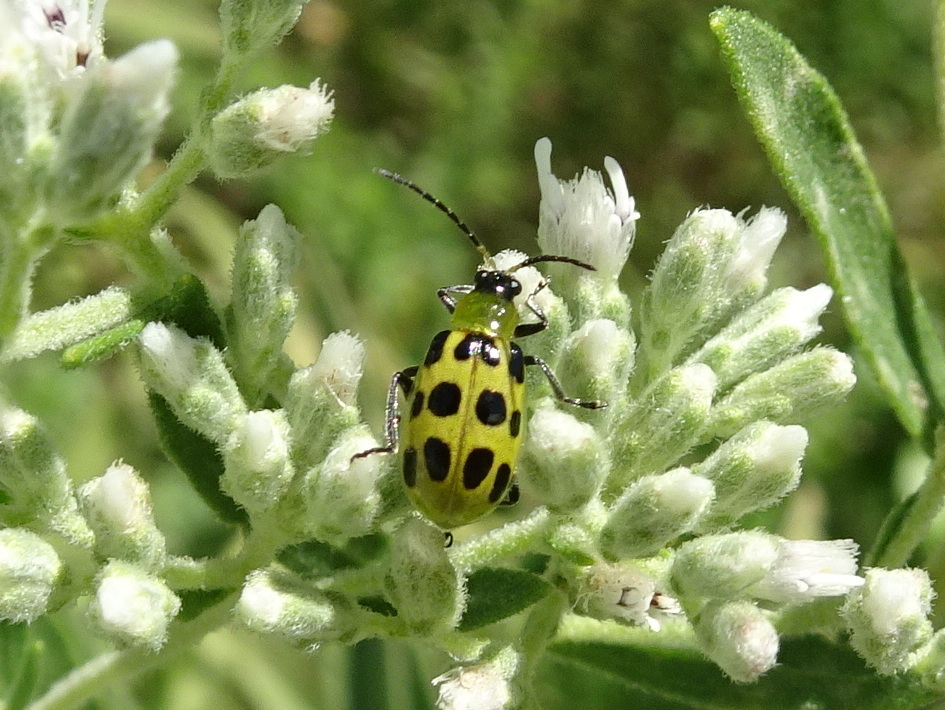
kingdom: Animalia
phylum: Arthropoda
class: Insecta
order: Coleoptera
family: Chrysomelidae
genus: Diabrotica
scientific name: Diabrotica undecimpunctata
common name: Spotted cucumber beetle
